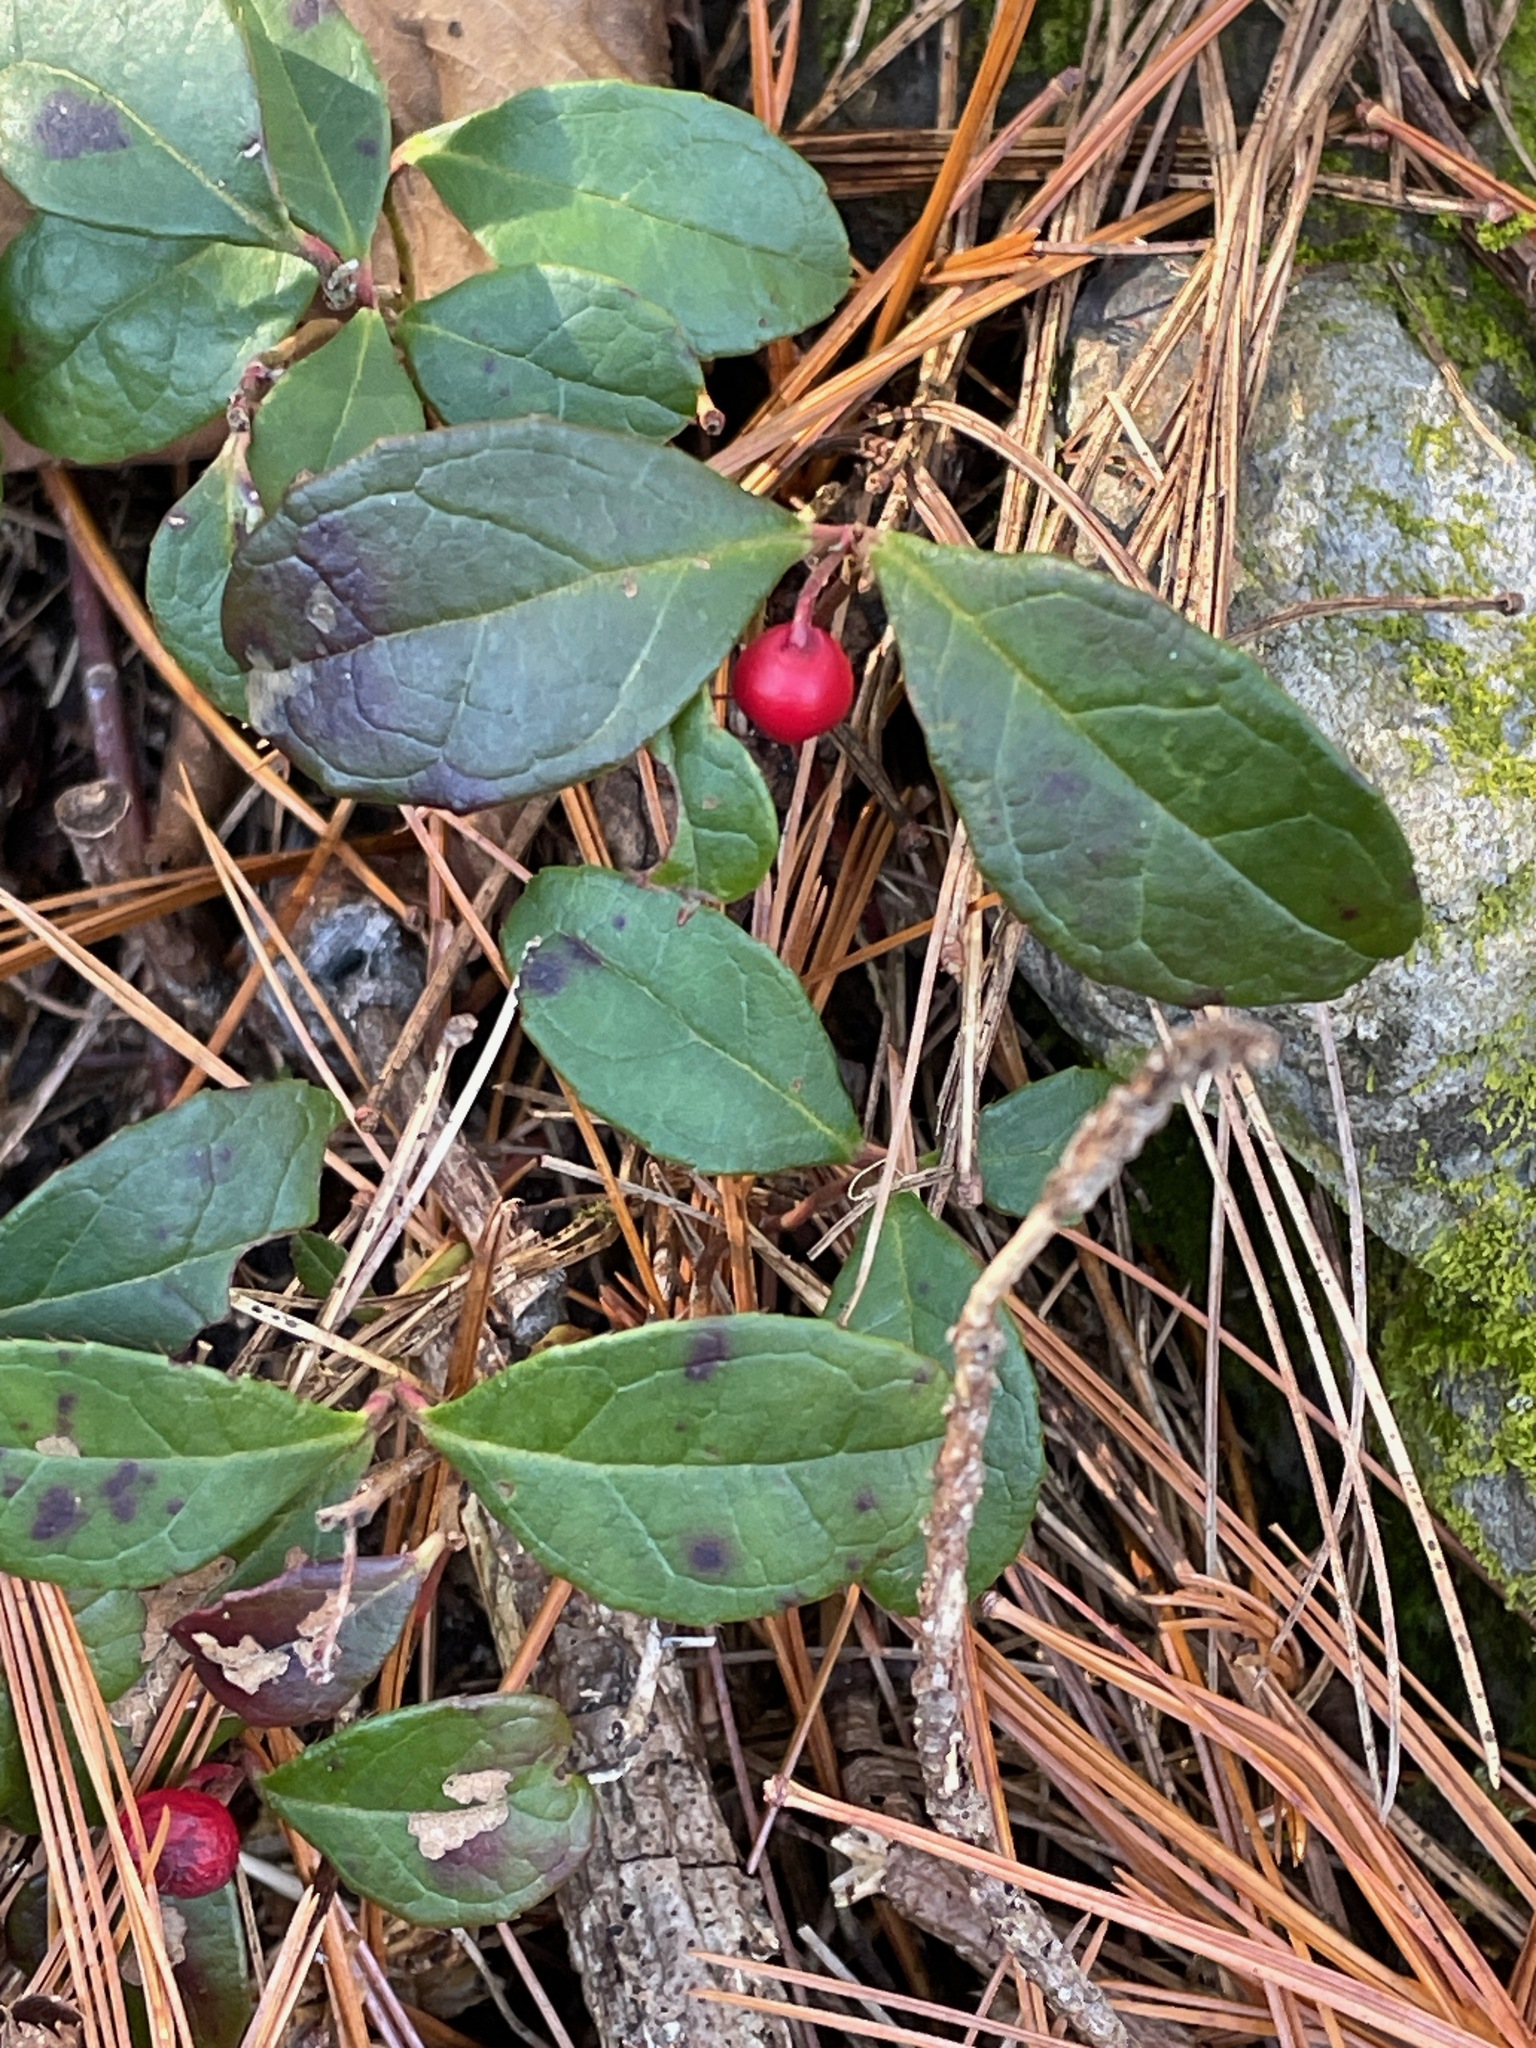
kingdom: Plantae
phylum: Tracheophyta
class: Magnoliopsida
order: Ericales
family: Ericaceae
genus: Gaultheria
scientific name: Gaultheria procumbens
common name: Checkerberry
